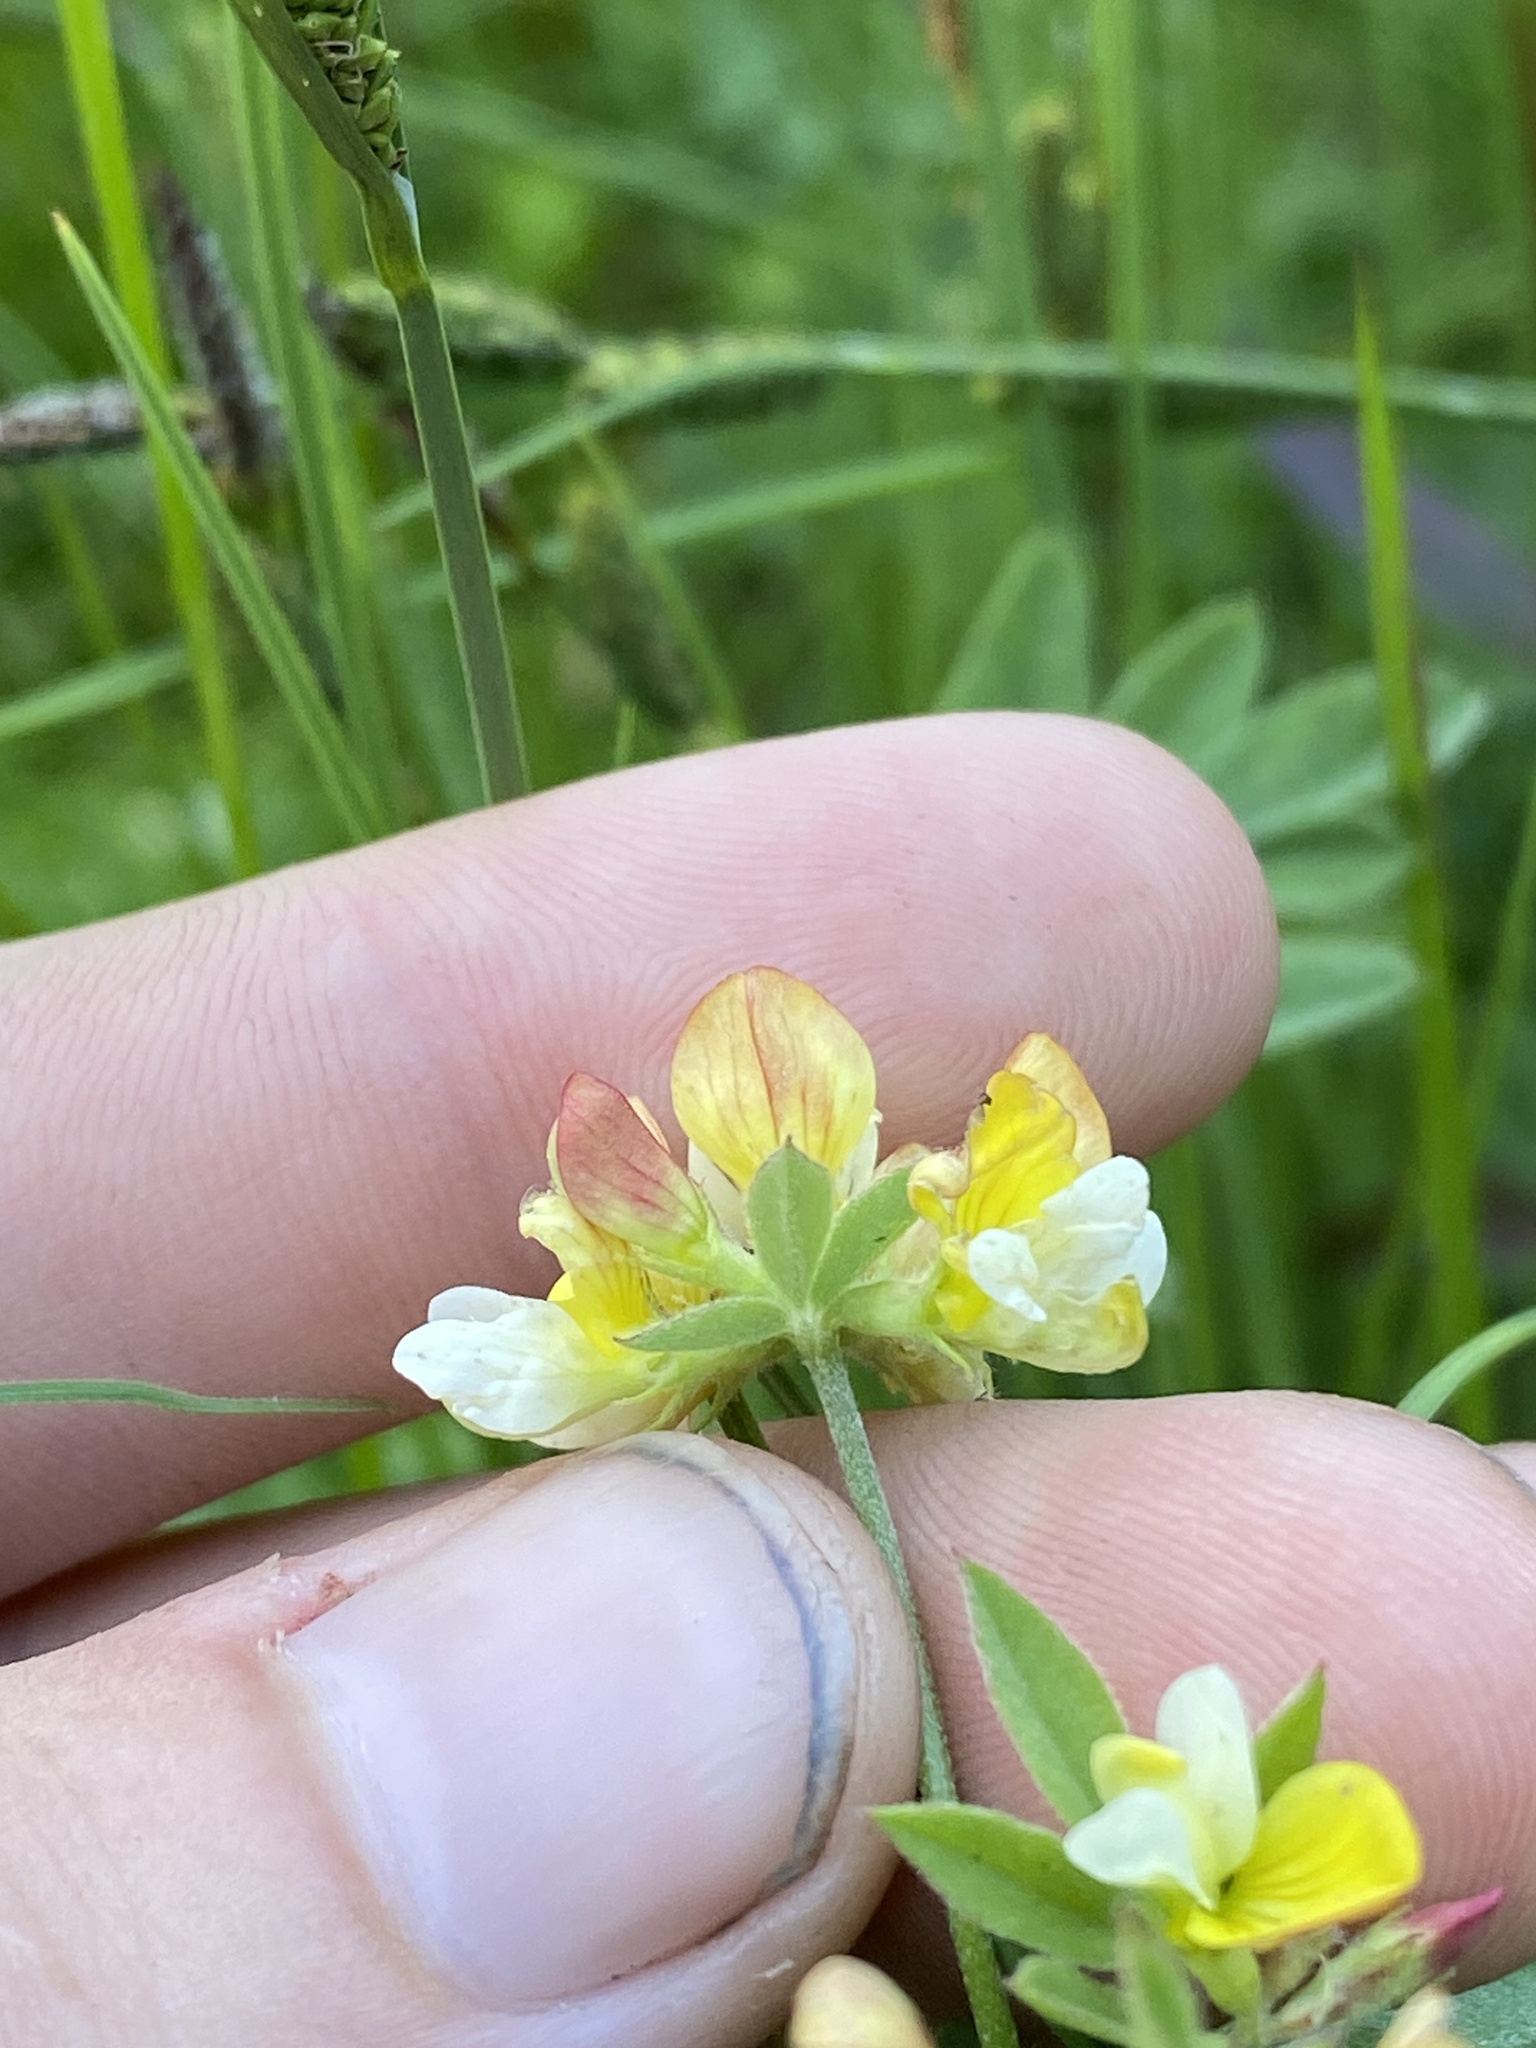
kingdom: Plantae
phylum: Tracheophyta
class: Magnoliopsida
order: Fabales
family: Fabaceae
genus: Hosackia
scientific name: Hosackia oblongifolia
